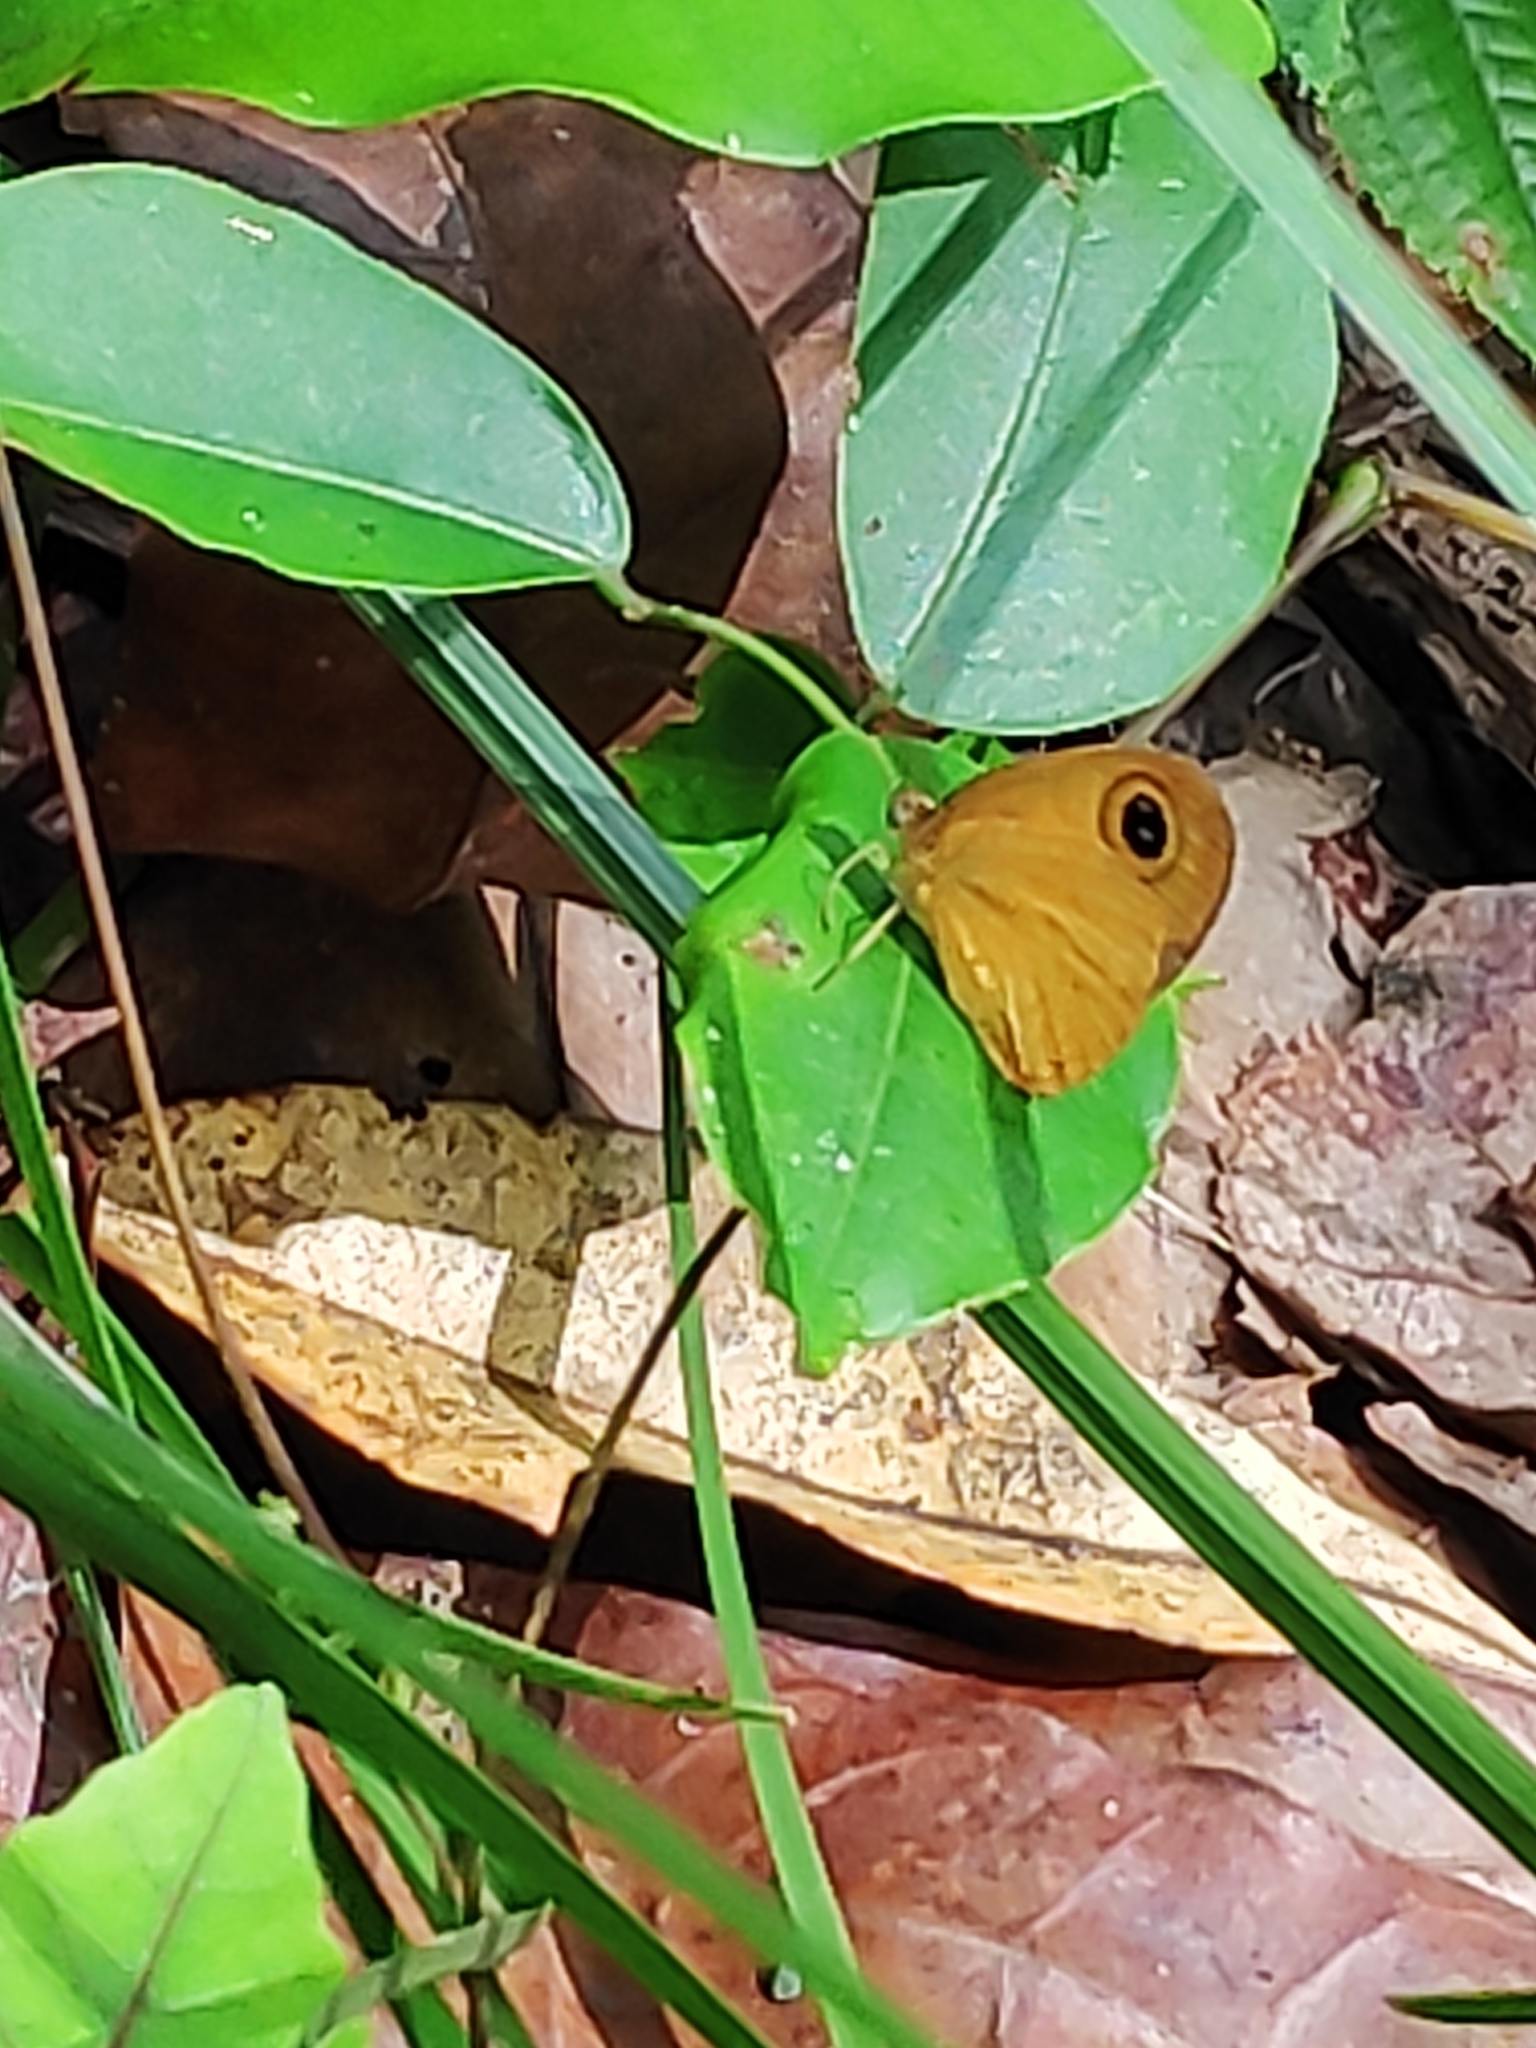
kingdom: Animalia
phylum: Arthropoda
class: Insecta
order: Lepidoptera
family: Nymphalidae
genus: Ypthima
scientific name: Ypthima sesara
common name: Common fijian ringlet
